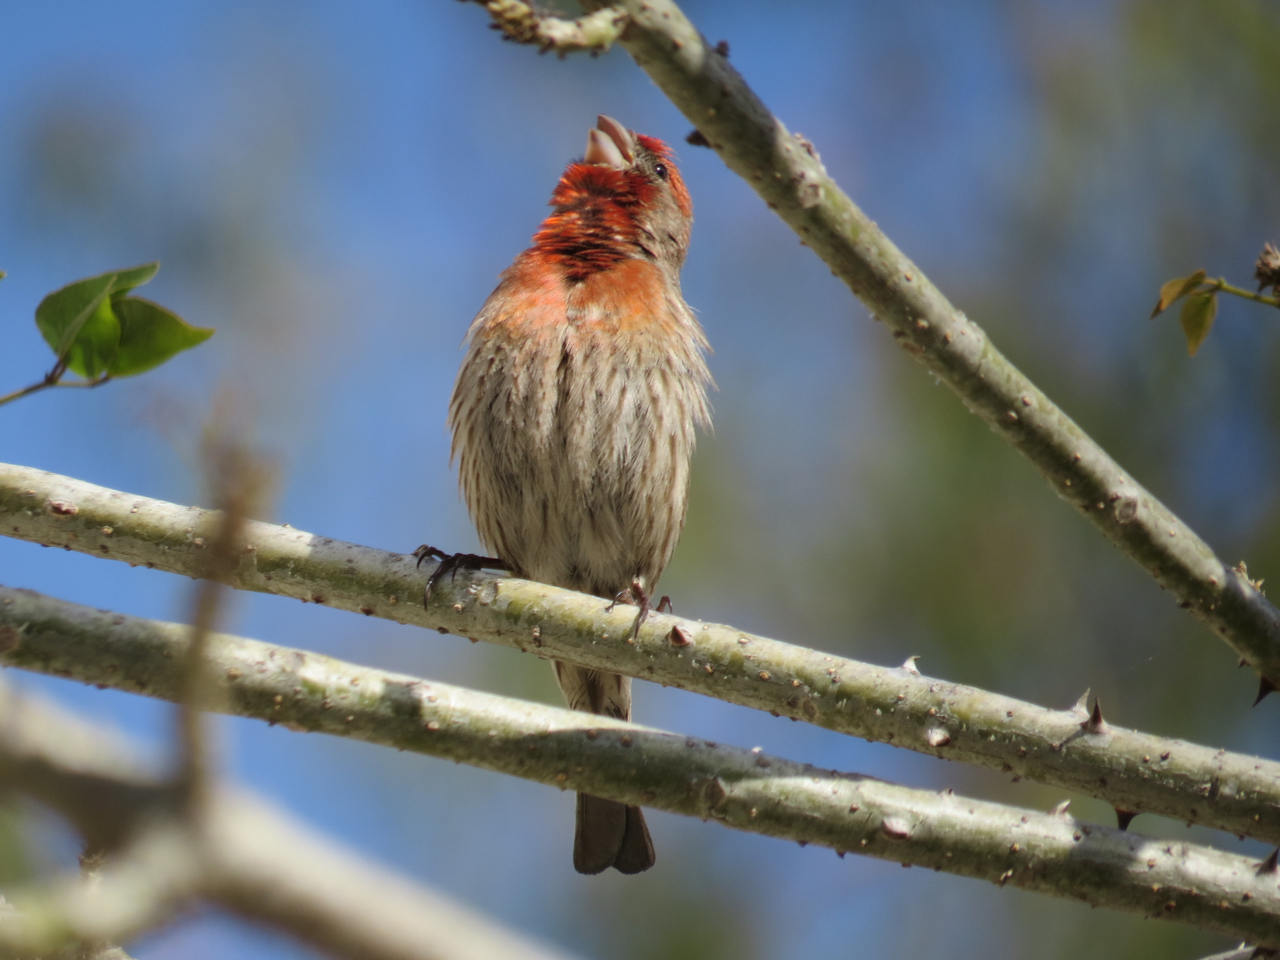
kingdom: Animalia
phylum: Chordata
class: Aves
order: Passeriformes
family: Fringillidae
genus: Haemorhous
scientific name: Haemorhous mexicanus
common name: House finch
